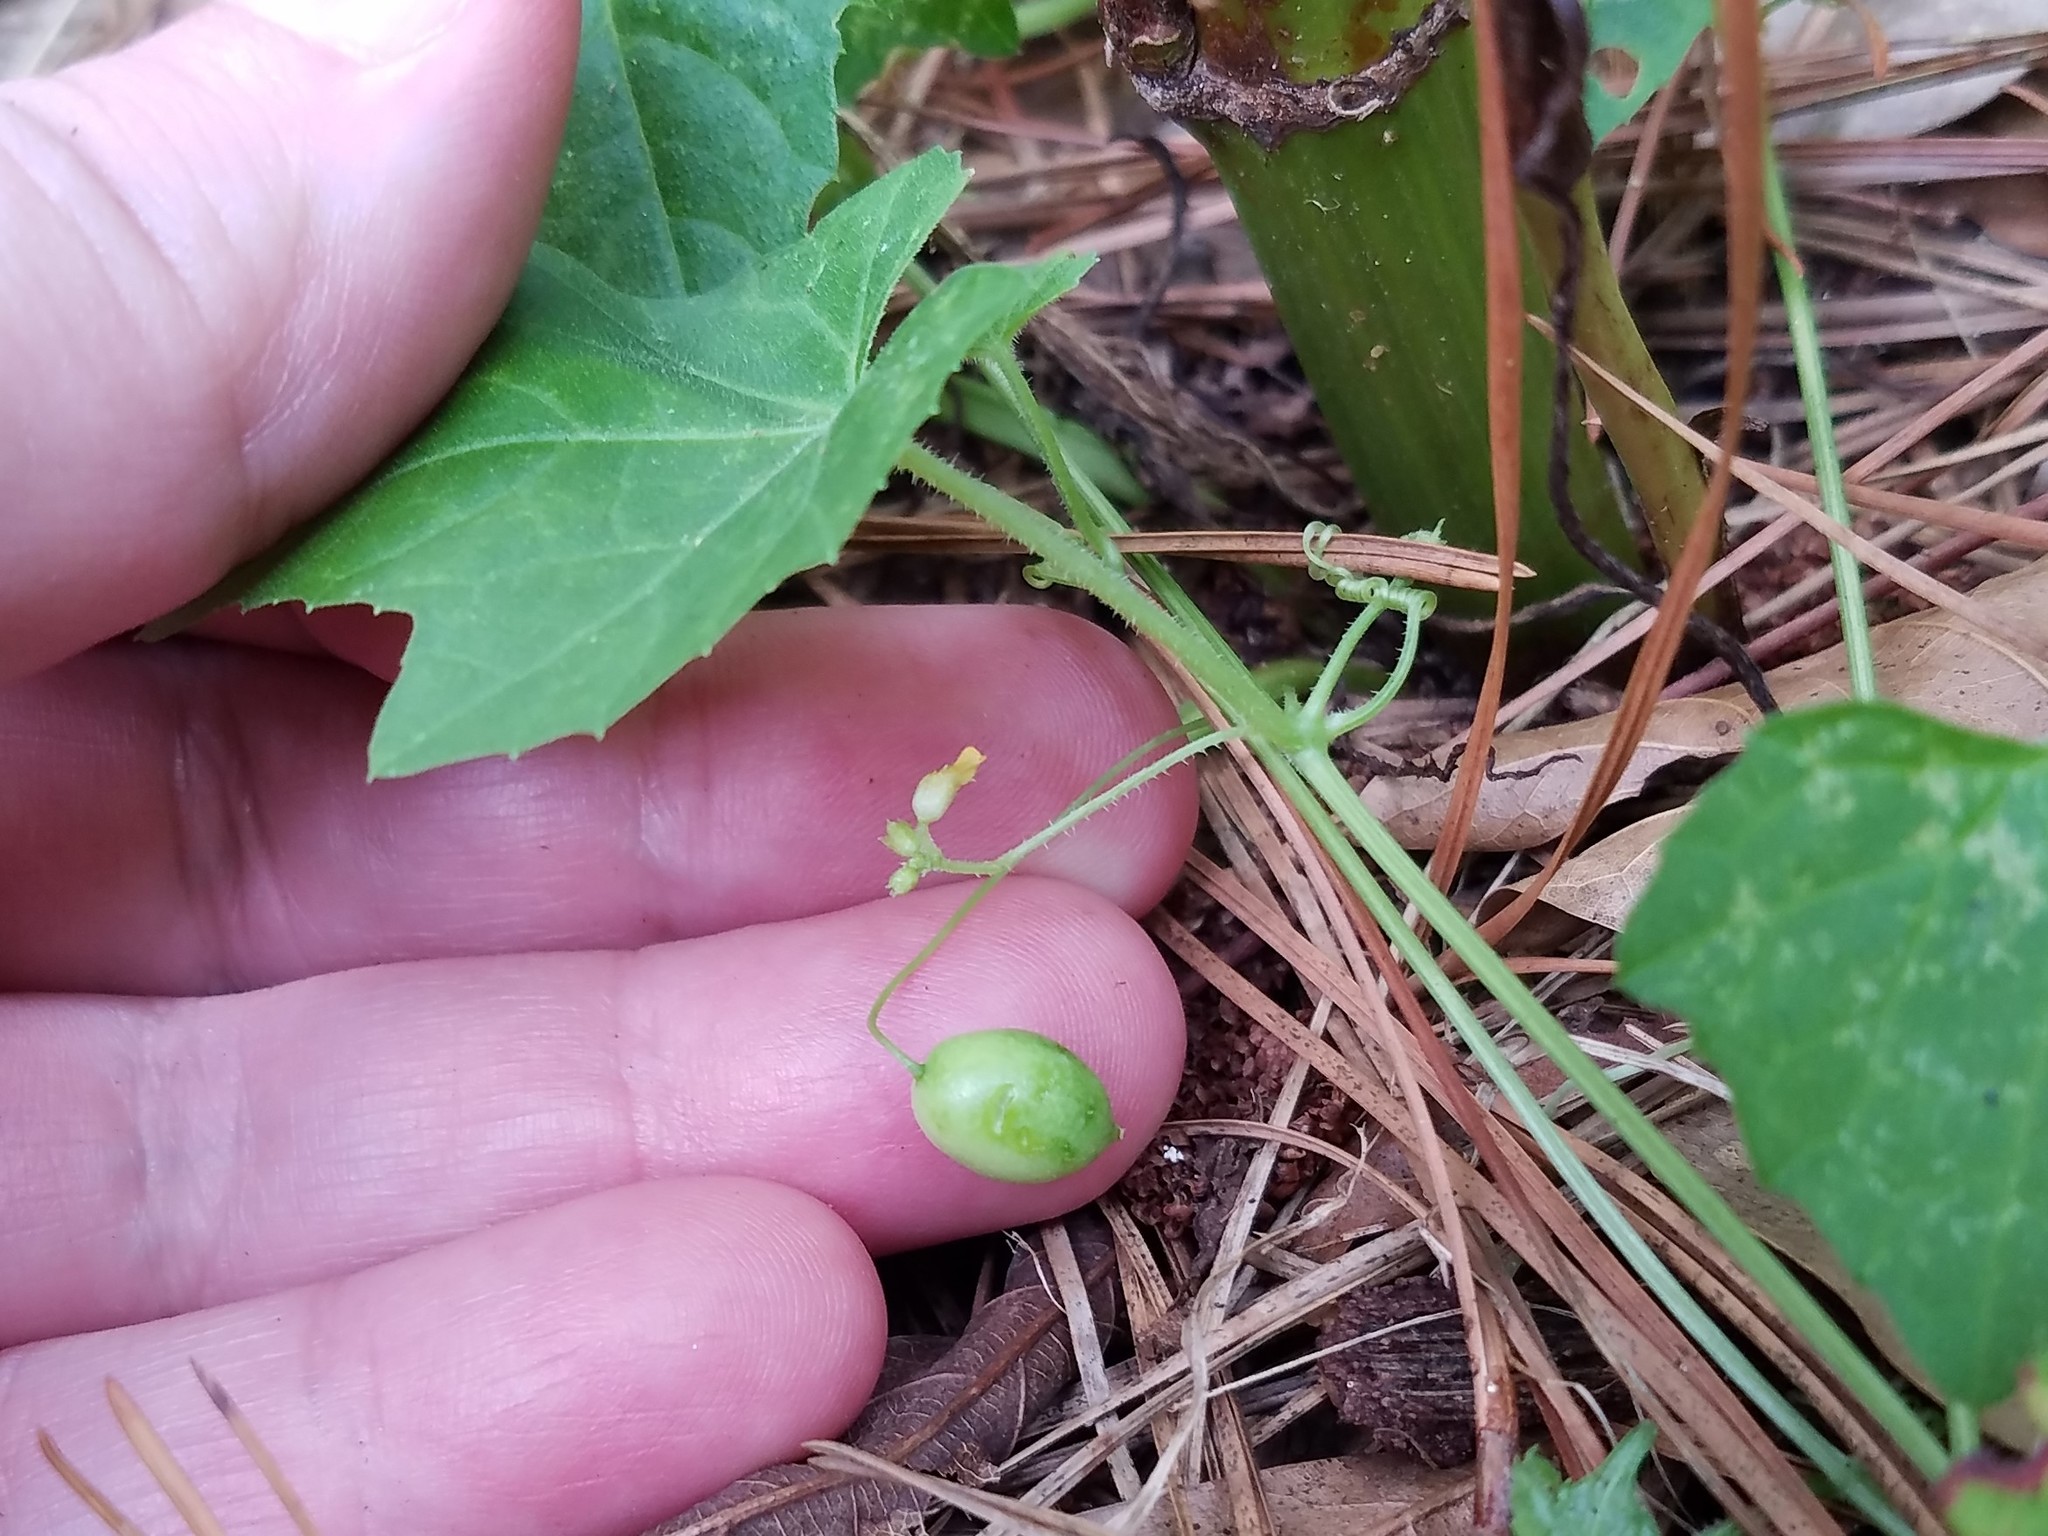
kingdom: Plantae
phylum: Tracheophyta
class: Magnoliopsida
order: Cucurbitales
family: Cucurbitaceae
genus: Melothria
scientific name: Melothria pendula
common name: Creeping-cucumber
